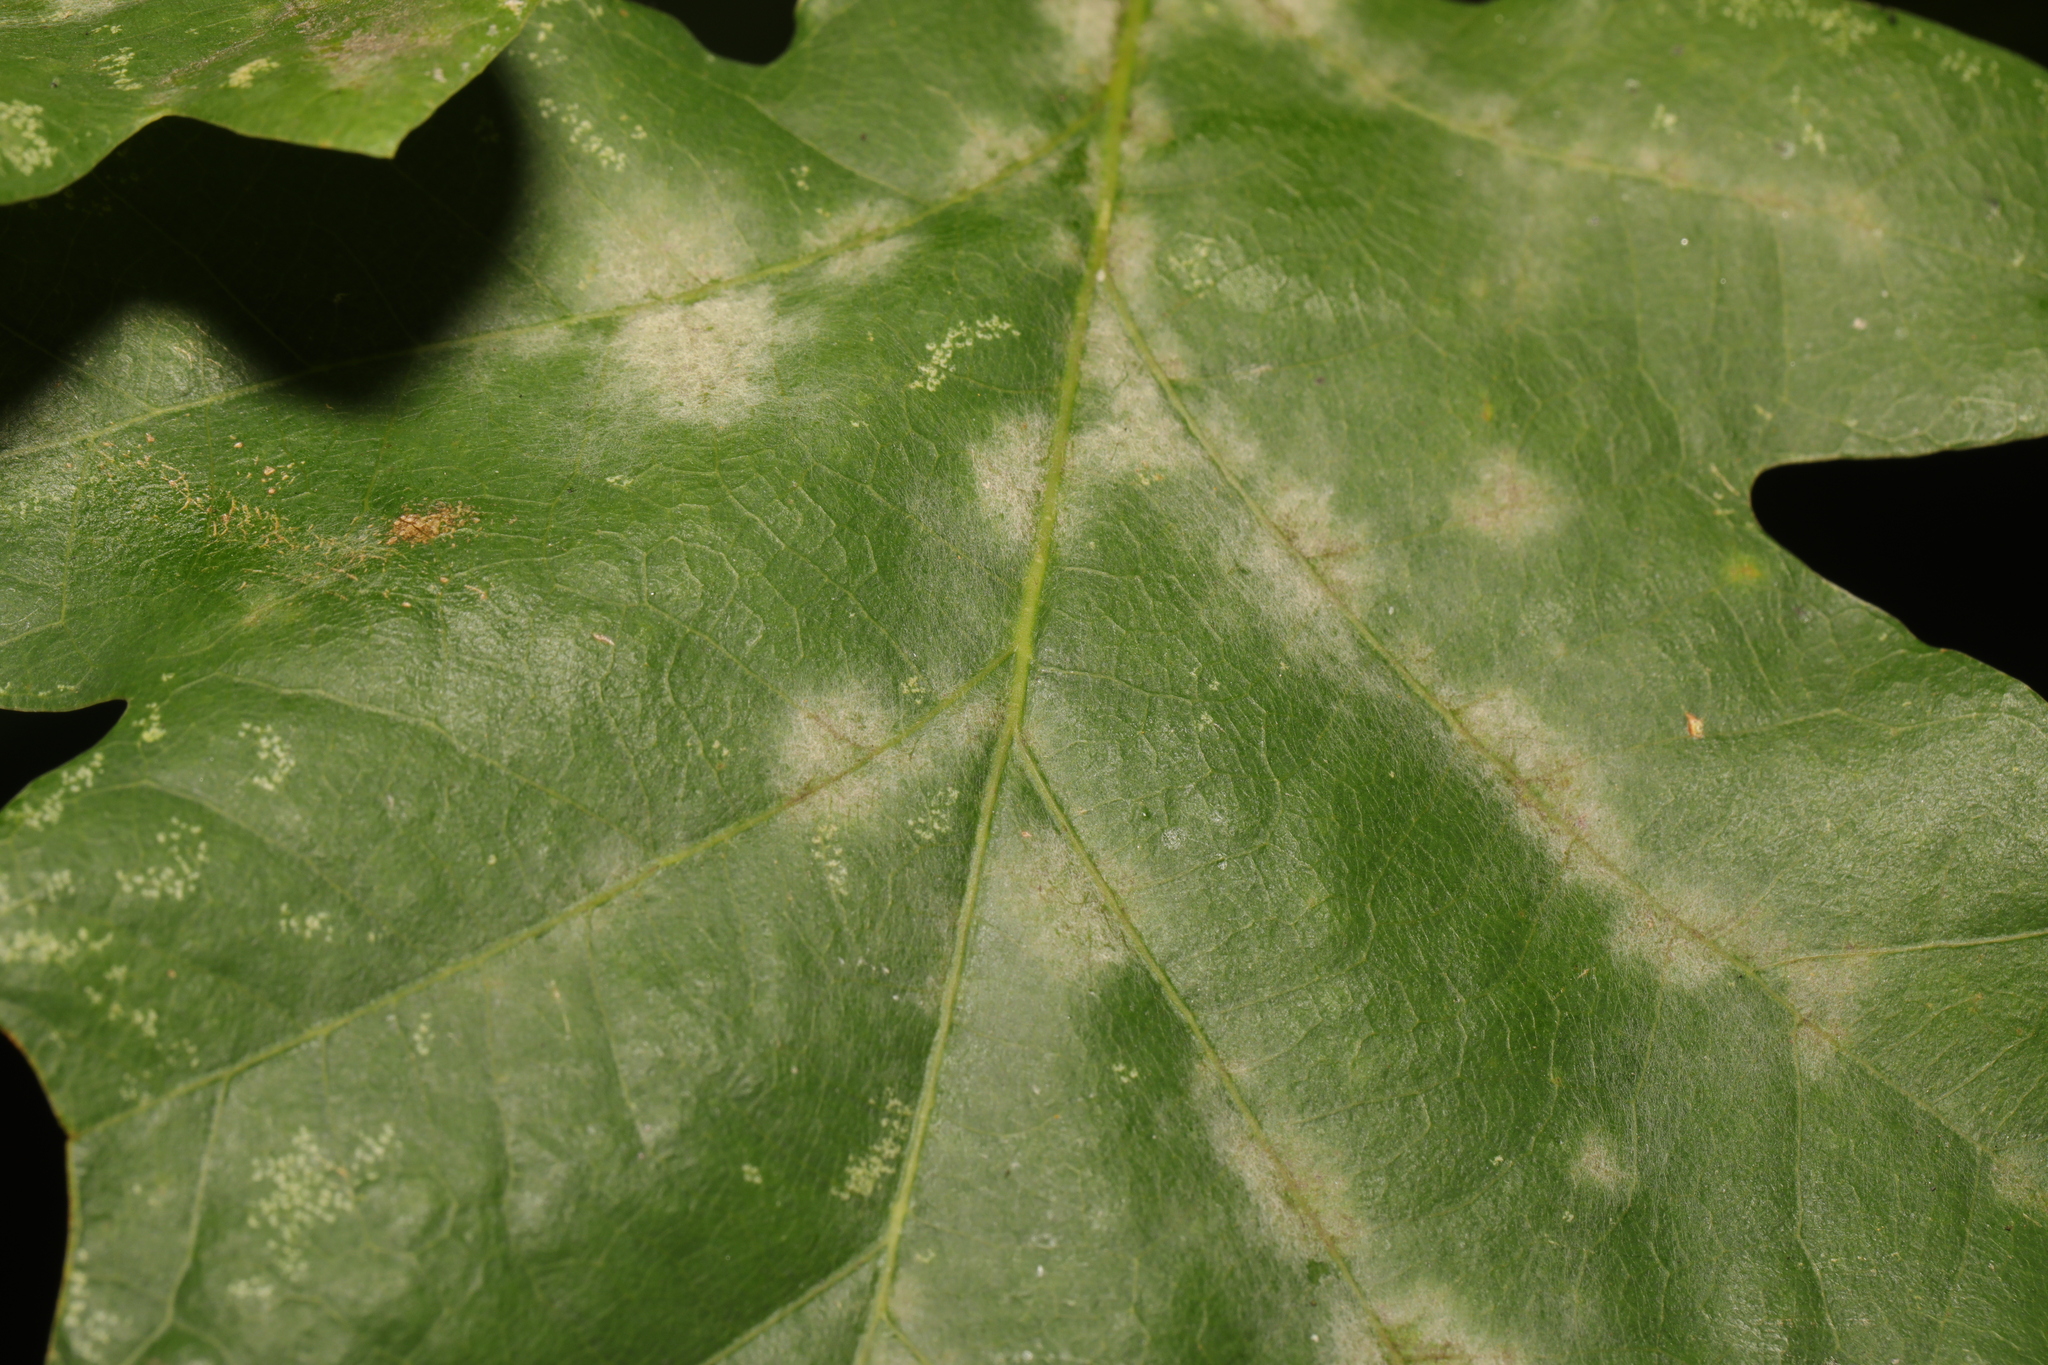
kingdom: Fungi
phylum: Ascomycota
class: Leotiomycetes
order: Helotiales
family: Erysiphaceae
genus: Erysiphe
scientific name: Erysiphe alphitoides
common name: Oak mildew
